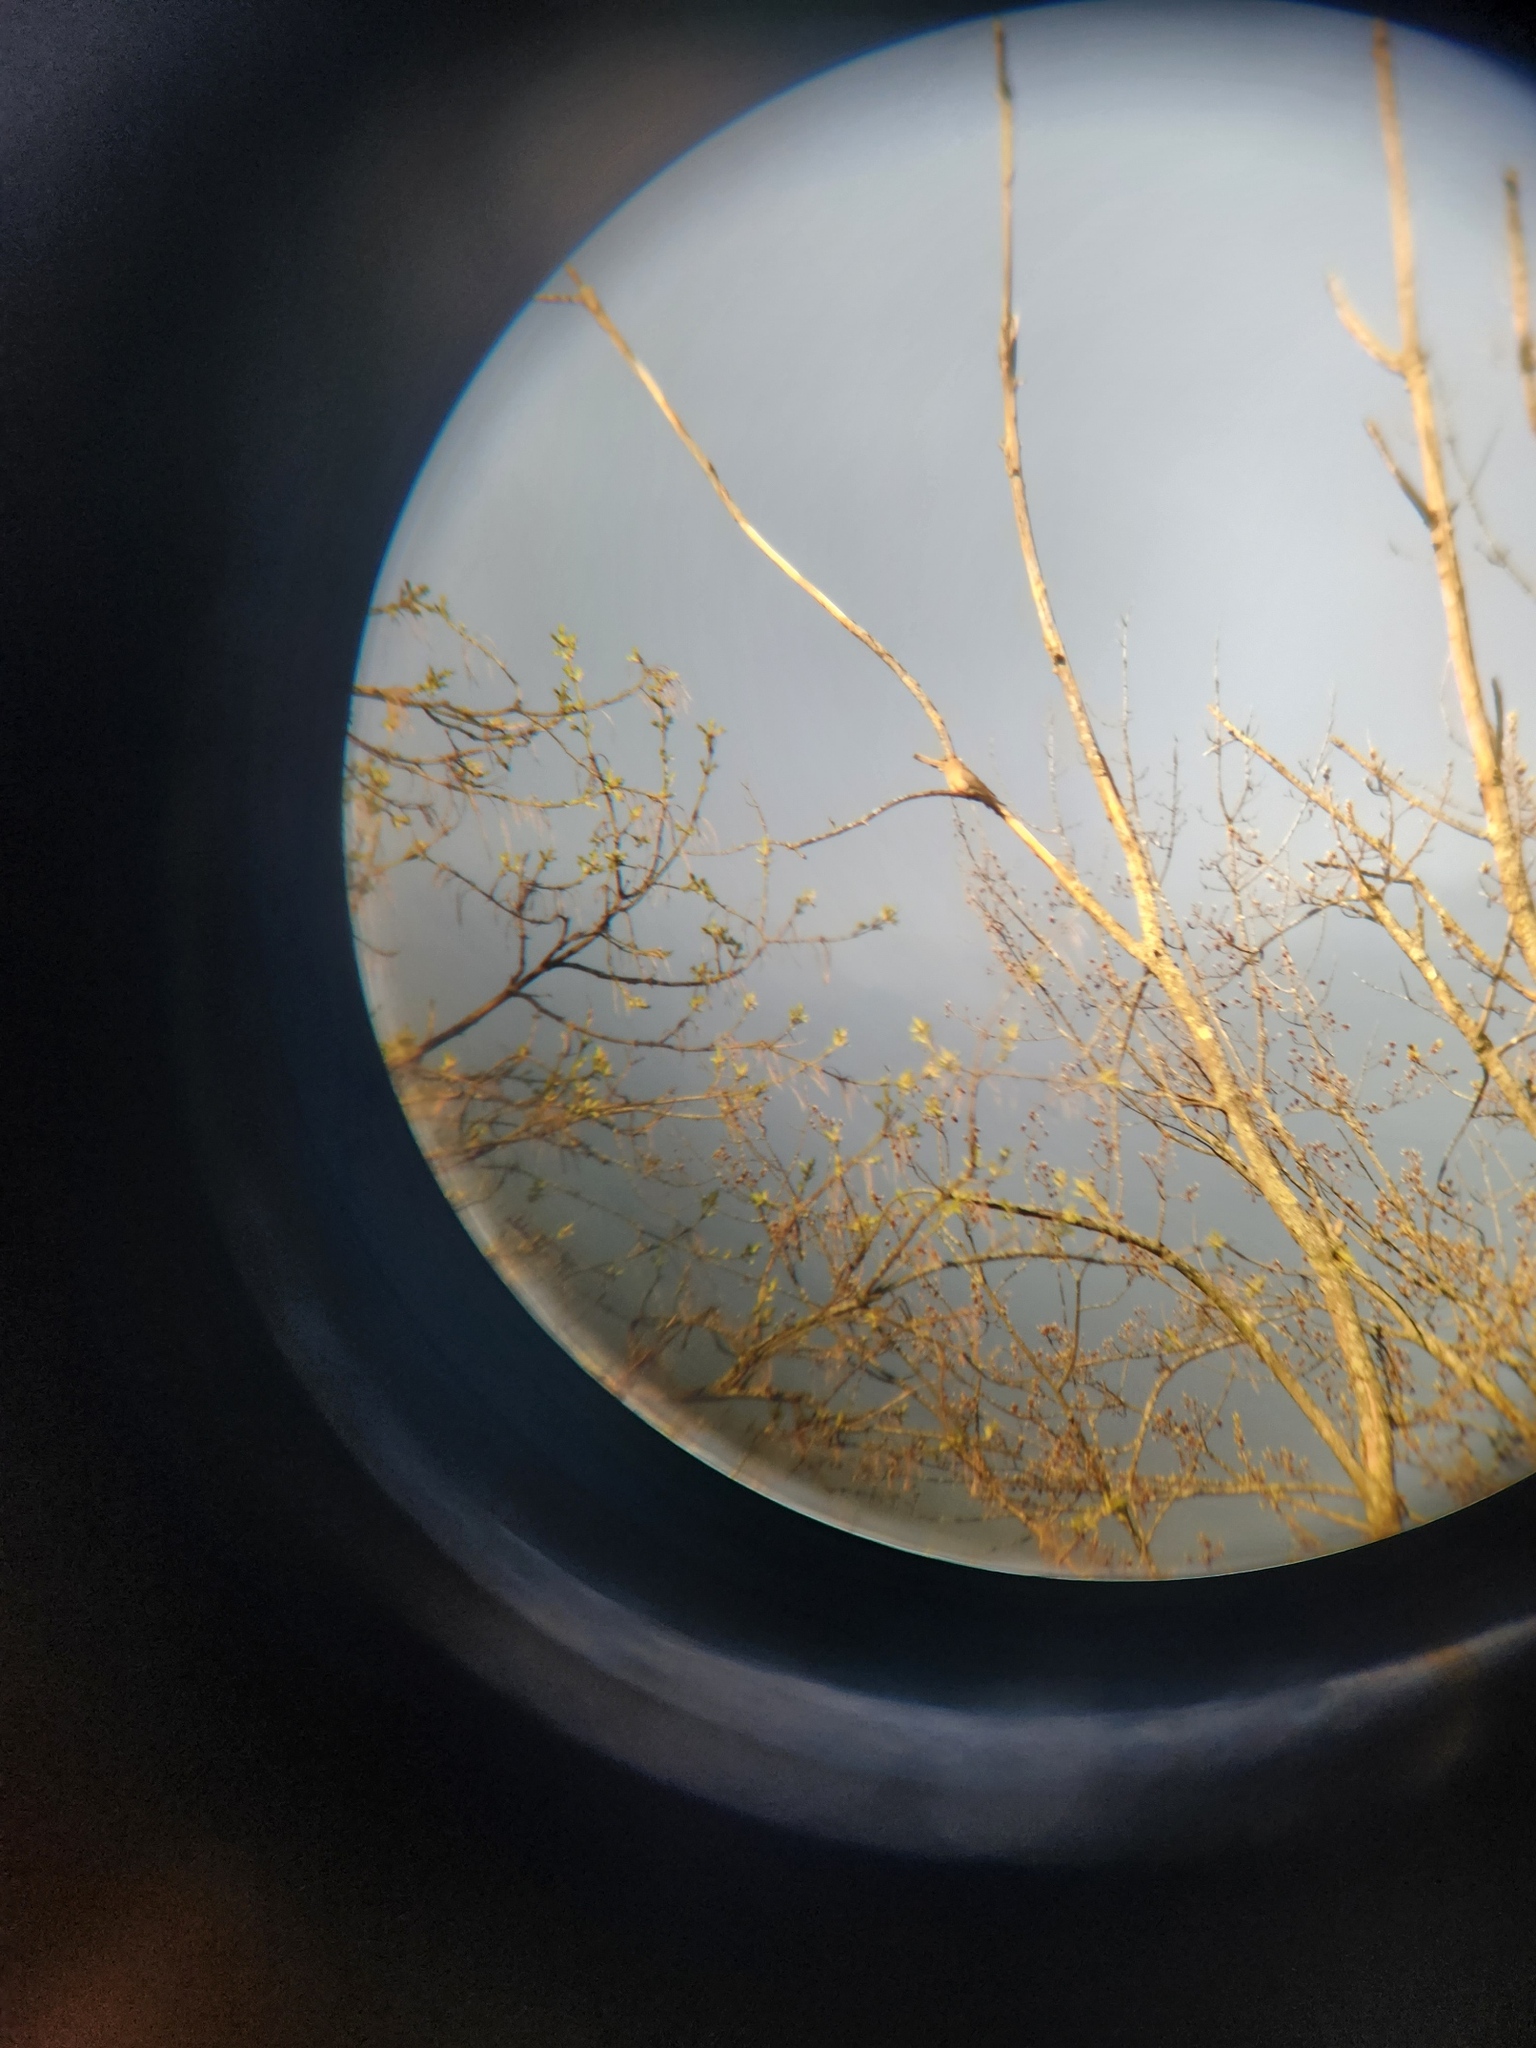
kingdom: Animalia
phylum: Chordata
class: Aves
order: Columbiformes
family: Columbidae
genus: Zenaida
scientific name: Zenaida macroura
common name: Mourning dove
